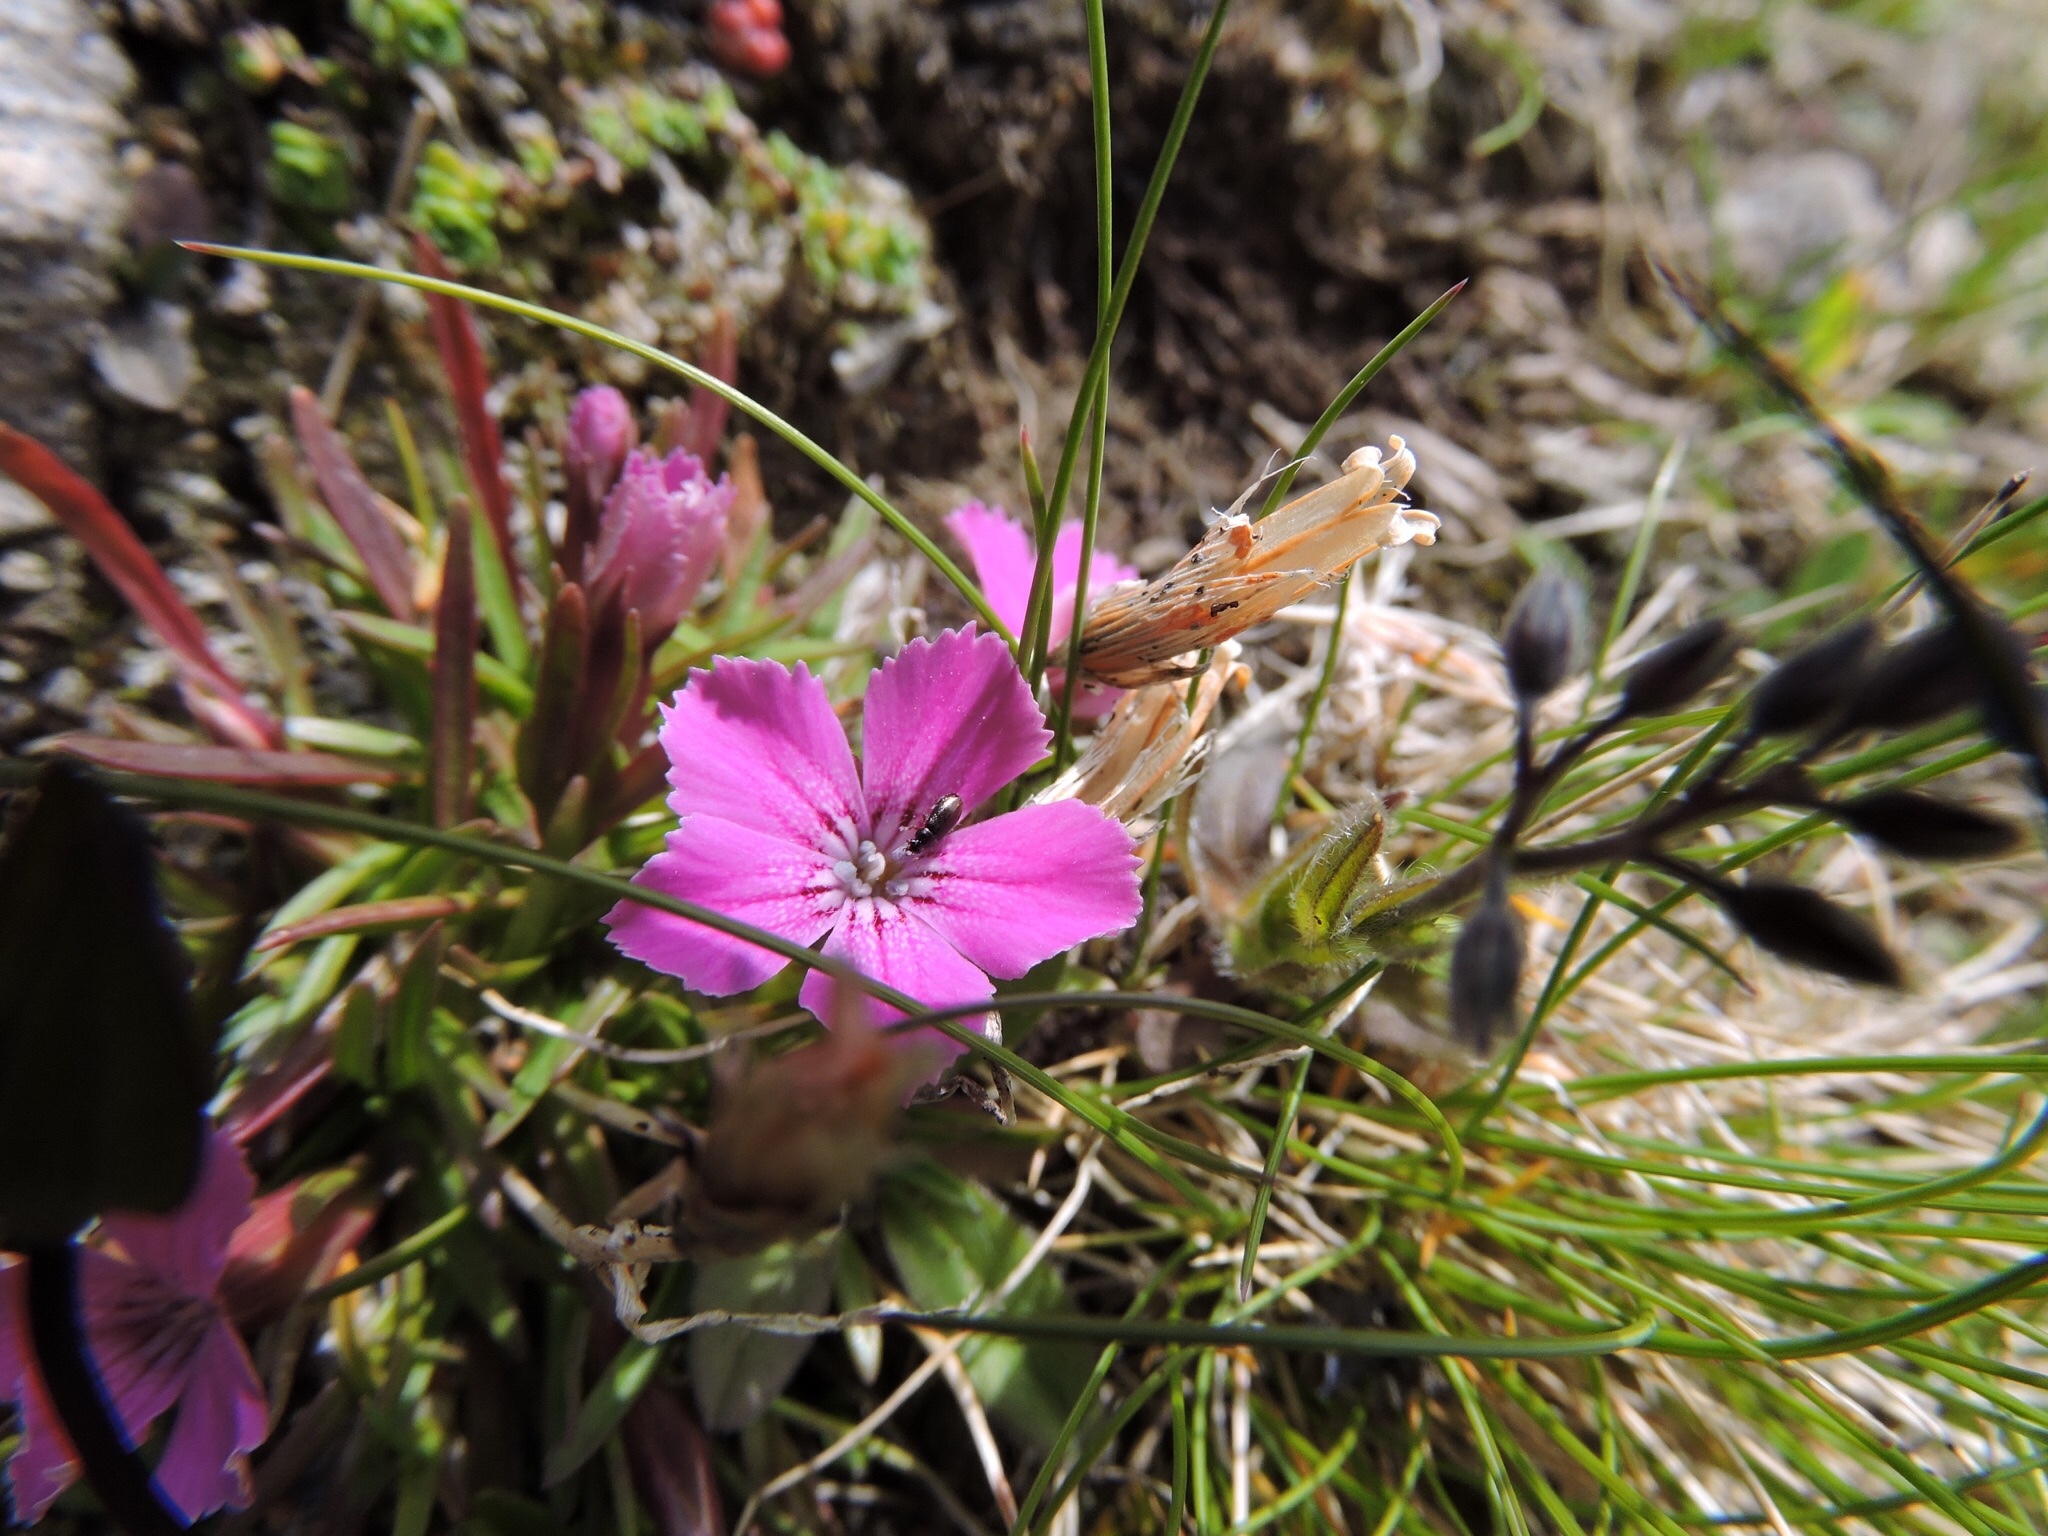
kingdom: Plantae
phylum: Tracheophyta
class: Magnoliopsida
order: Caryophyllales
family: Caryophyllaceae
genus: Dianthus
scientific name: Dianthus glacialis
